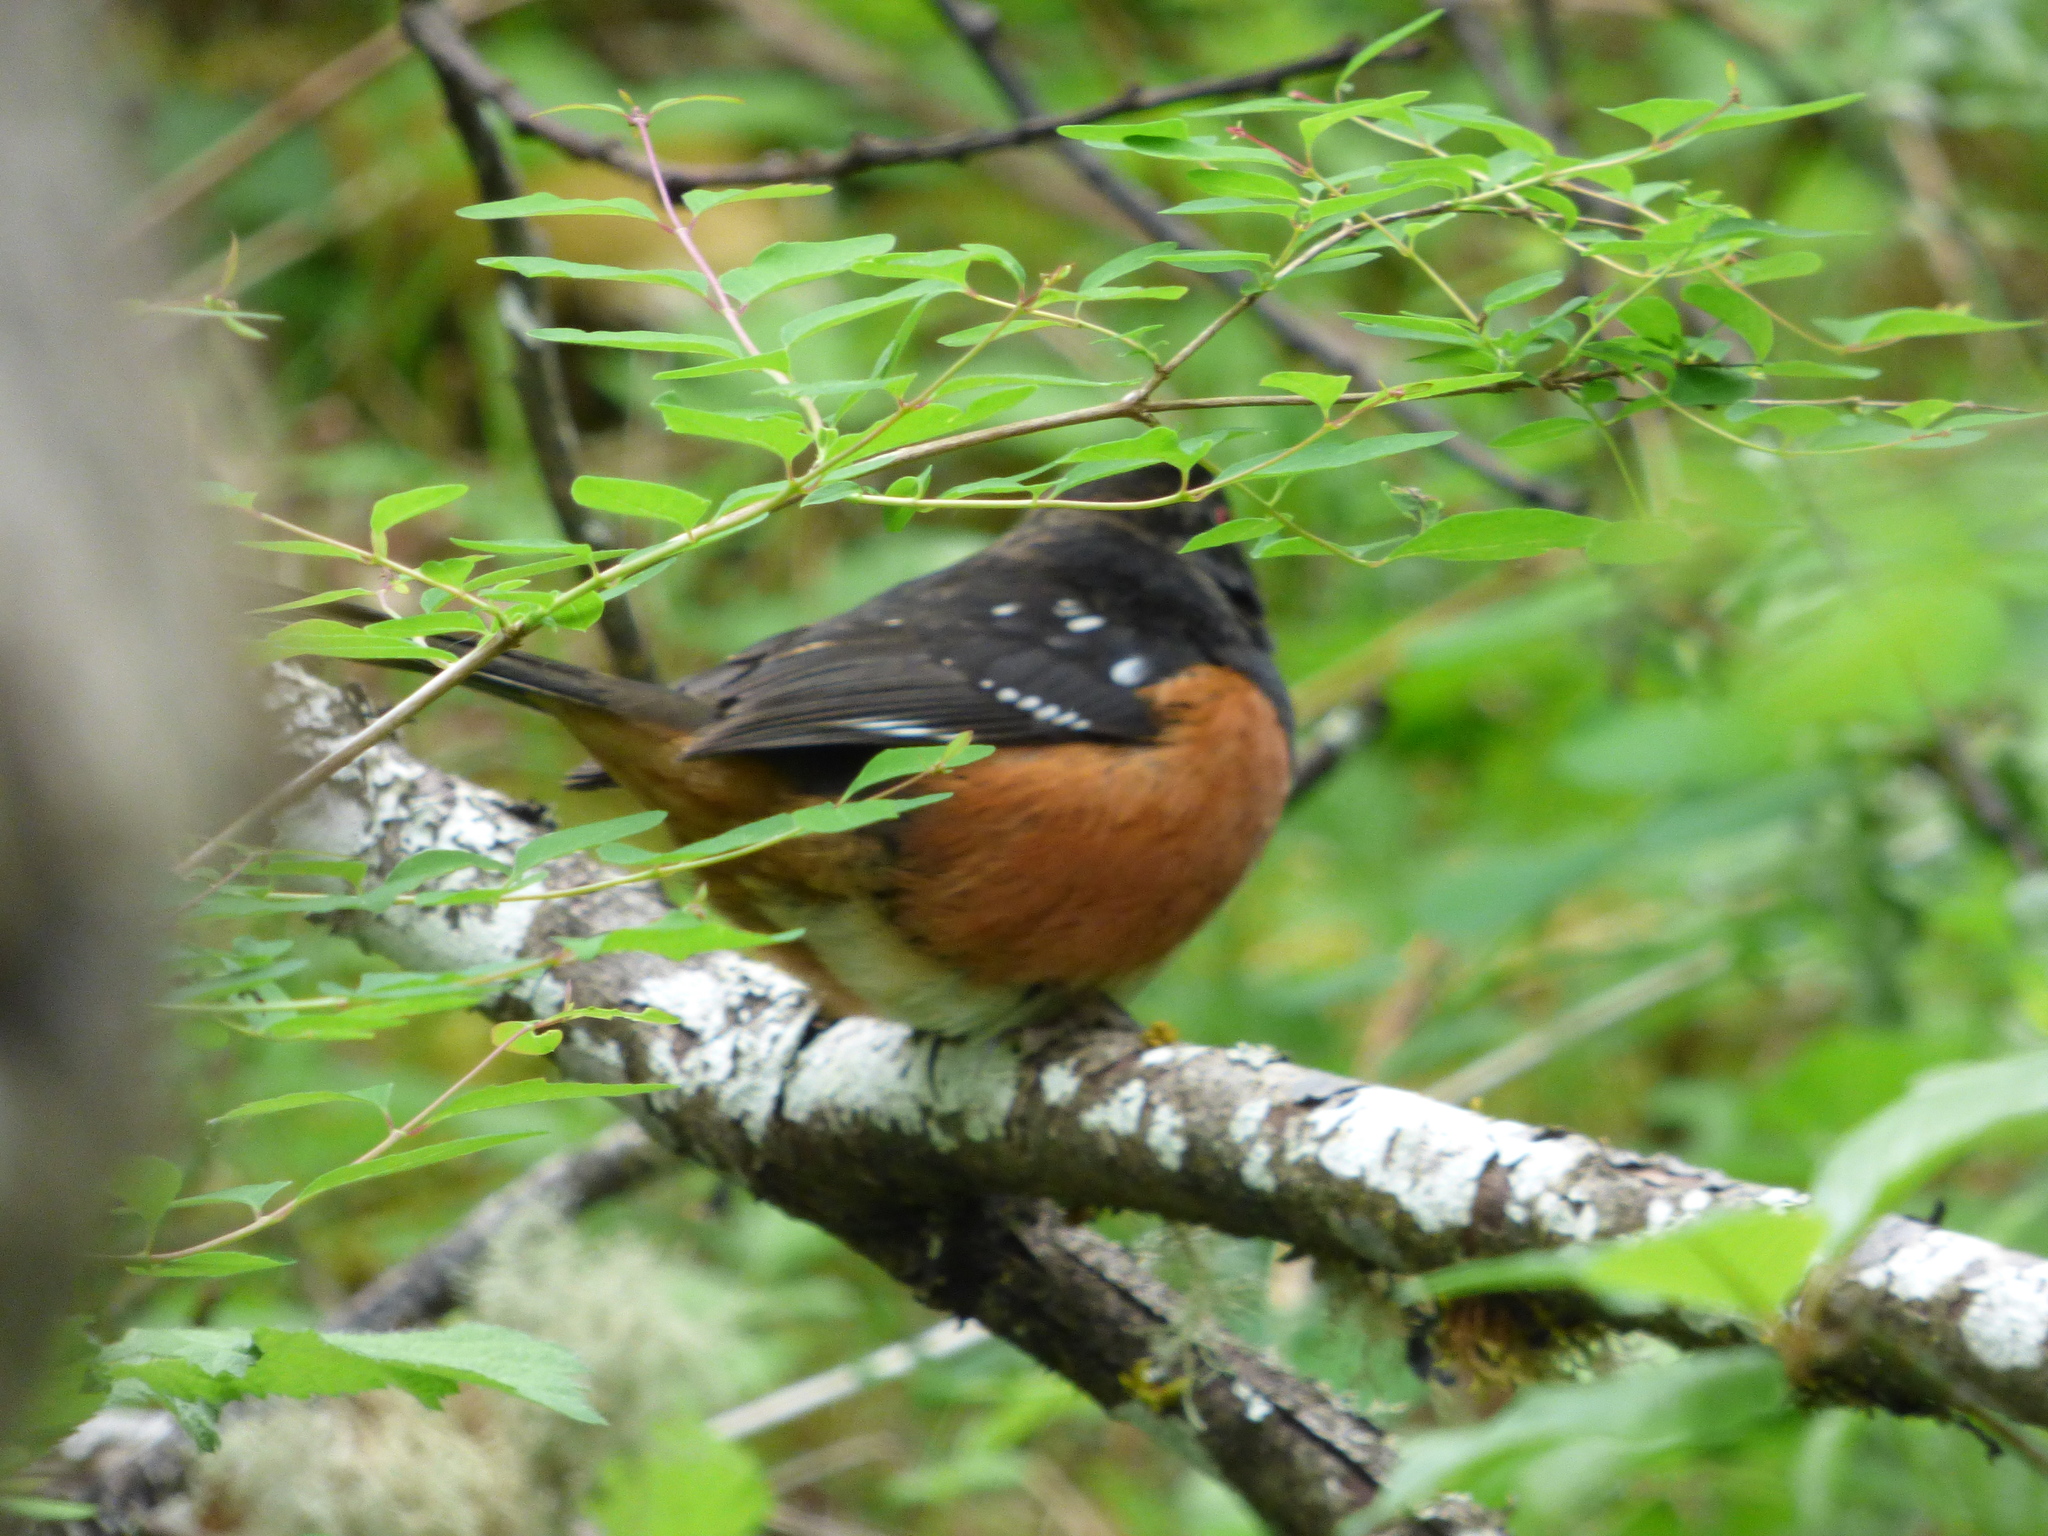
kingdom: Animalia
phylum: Chordata
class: Aves
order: Passeriformes
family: Passerellidae
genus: Pipilo
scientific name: Pipilo maculatus
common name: Spotted towhee
